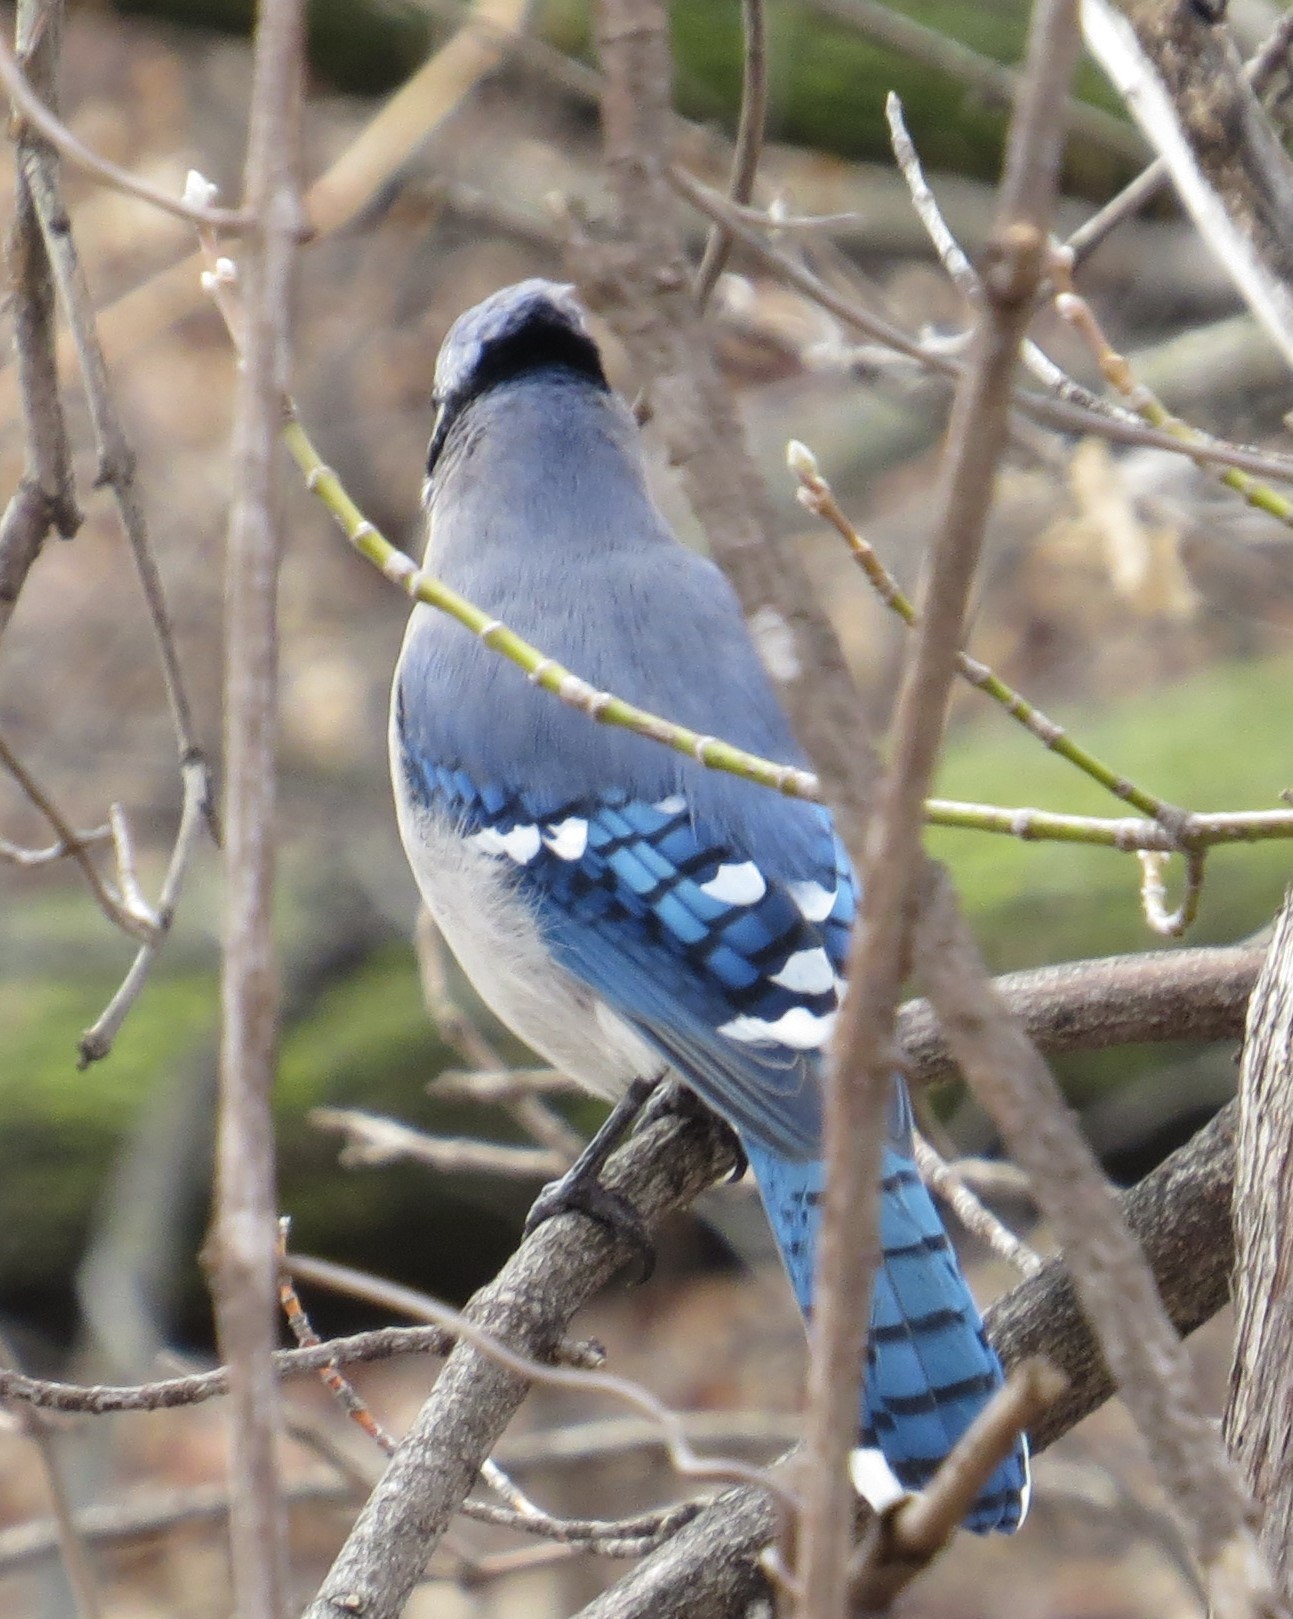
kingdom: Animalia
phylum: Chordata
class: Aves
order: Passeriformes
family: Corvidae
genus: Cyanocitta
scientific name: Cyanocitta cristata
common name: Blue jay
